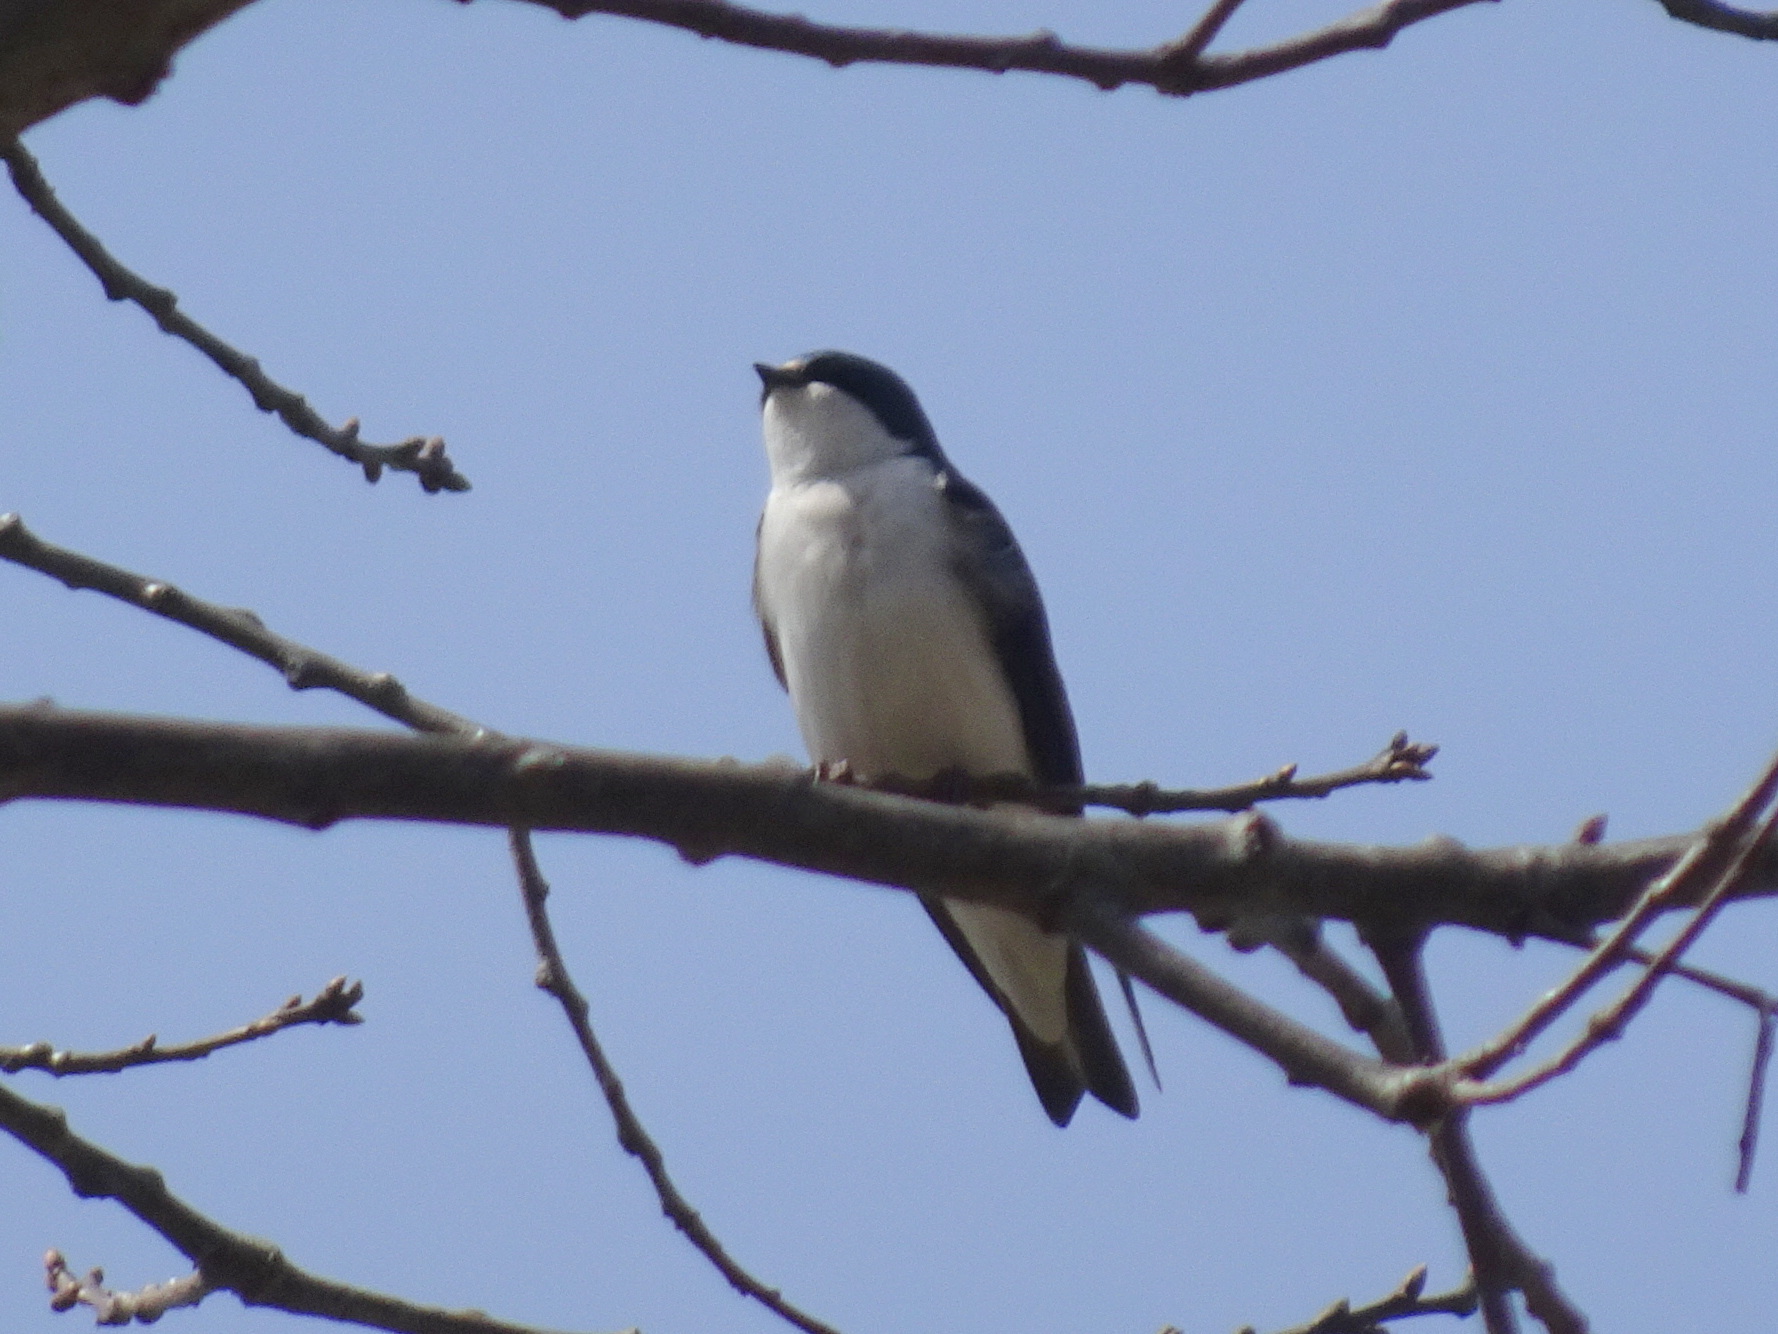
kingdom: Animalia
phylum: Chordata
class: Aves
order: Passeriformes
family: Hirundinidae
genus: Tachycineta
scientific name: Tachycineta bicolor
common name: Tree swallow
